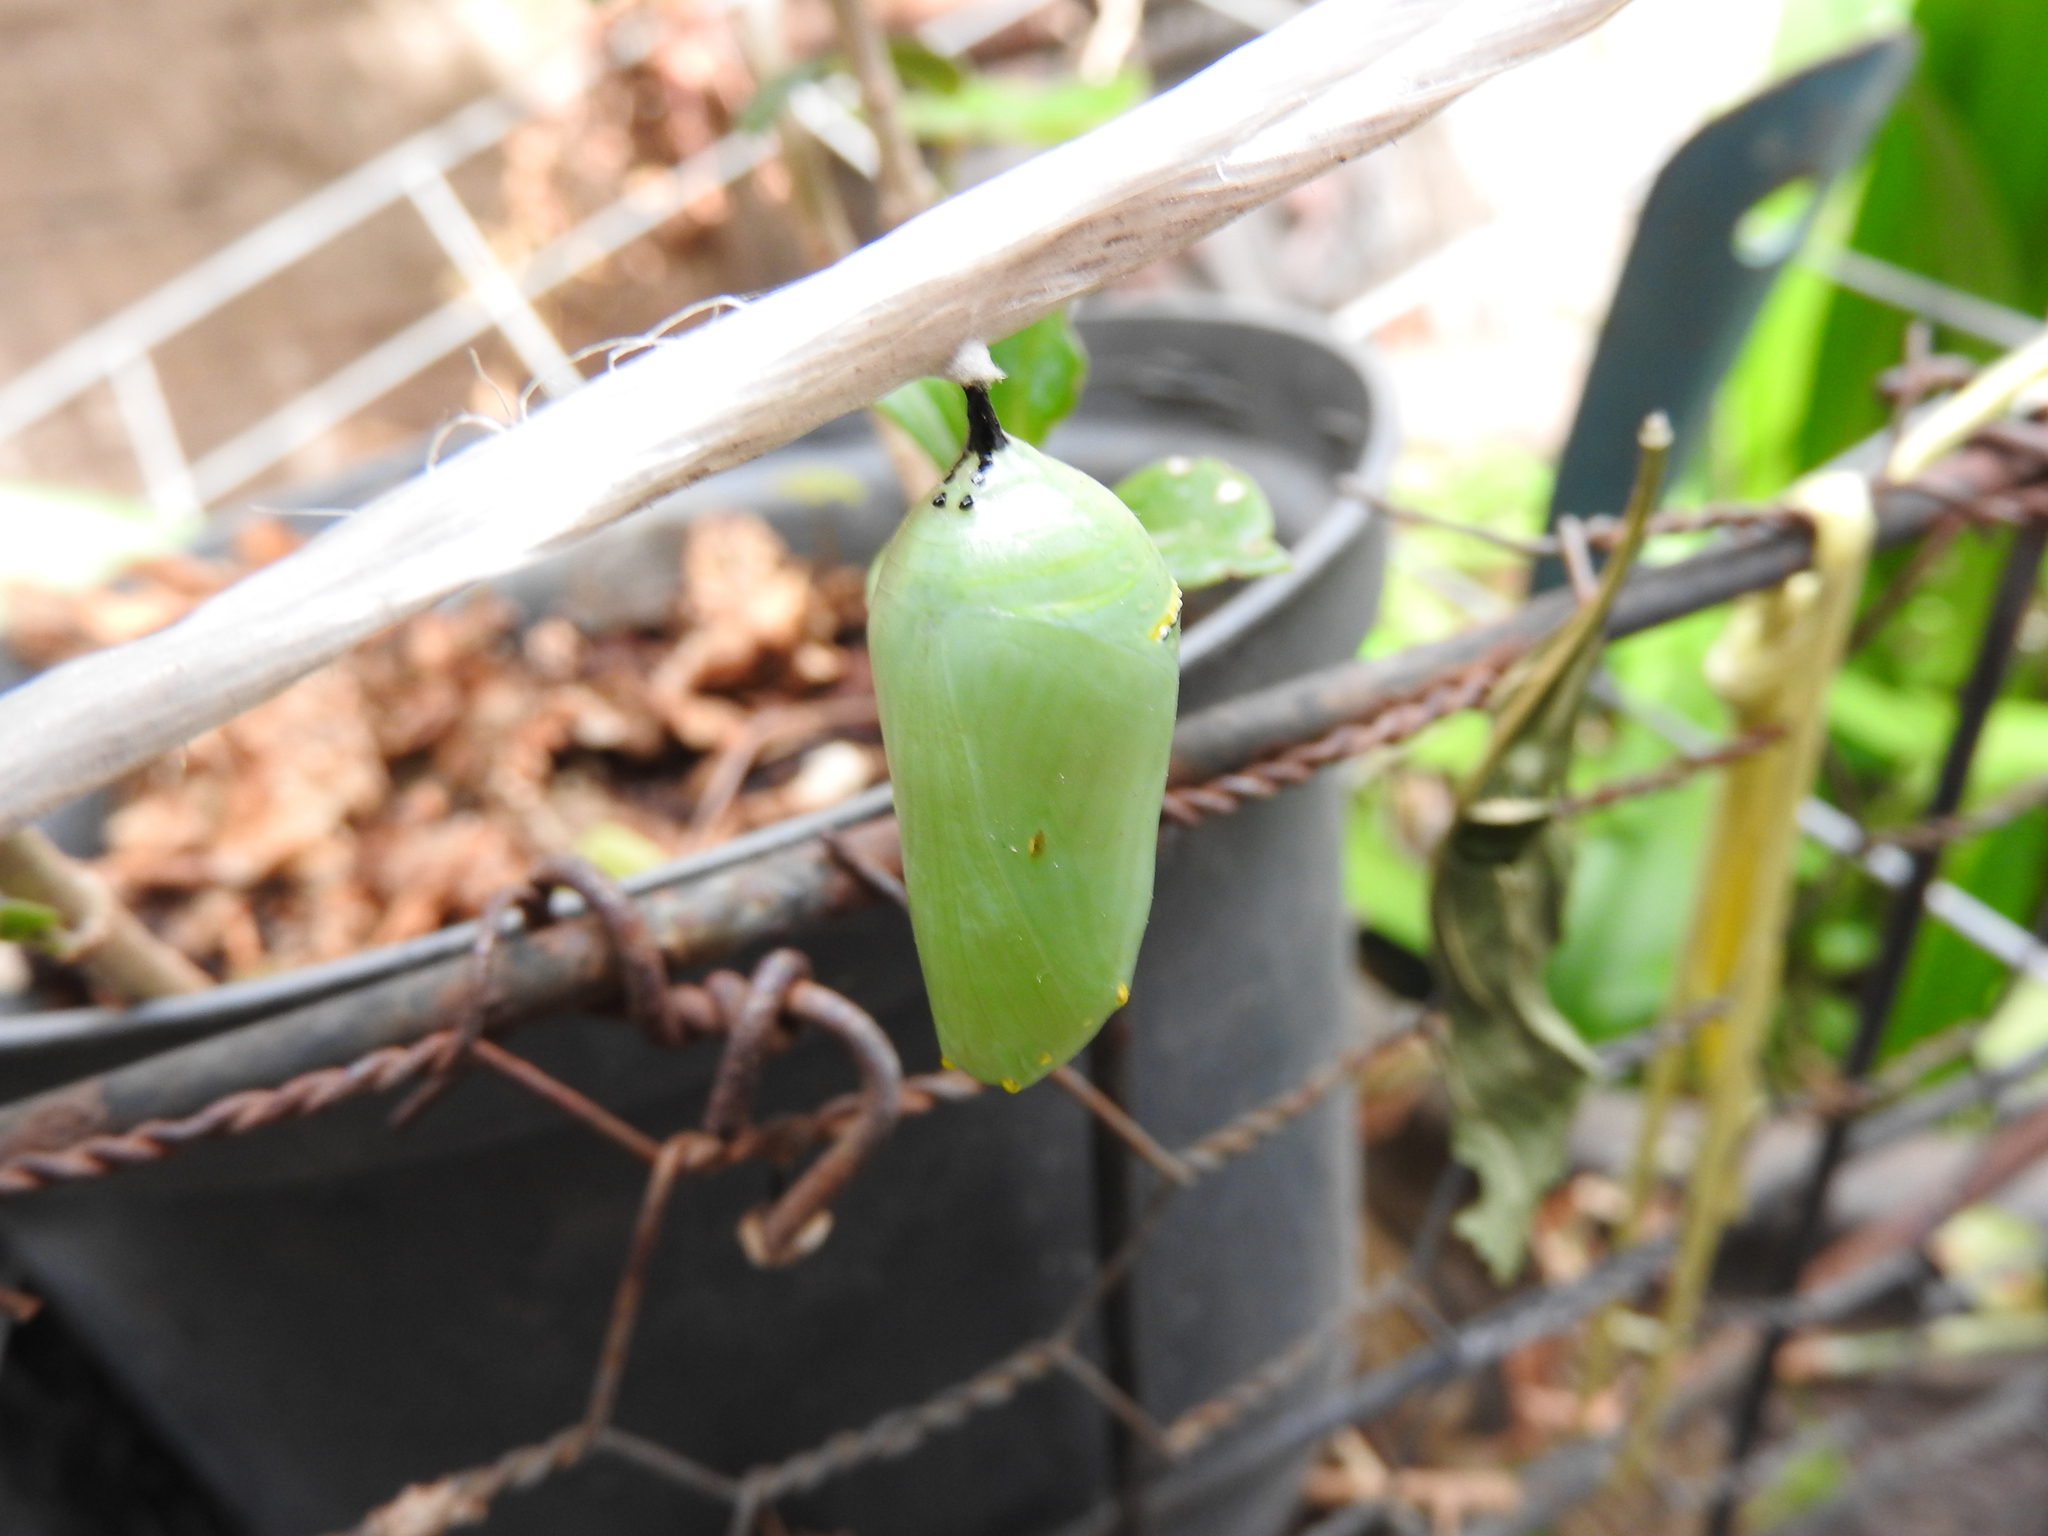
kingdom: Animalia
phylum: Arthropoda
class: Insecta
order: Lepidoptera
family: Nymphalidae
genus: Danaus
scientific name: Danaus plexippus
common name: Monarch
